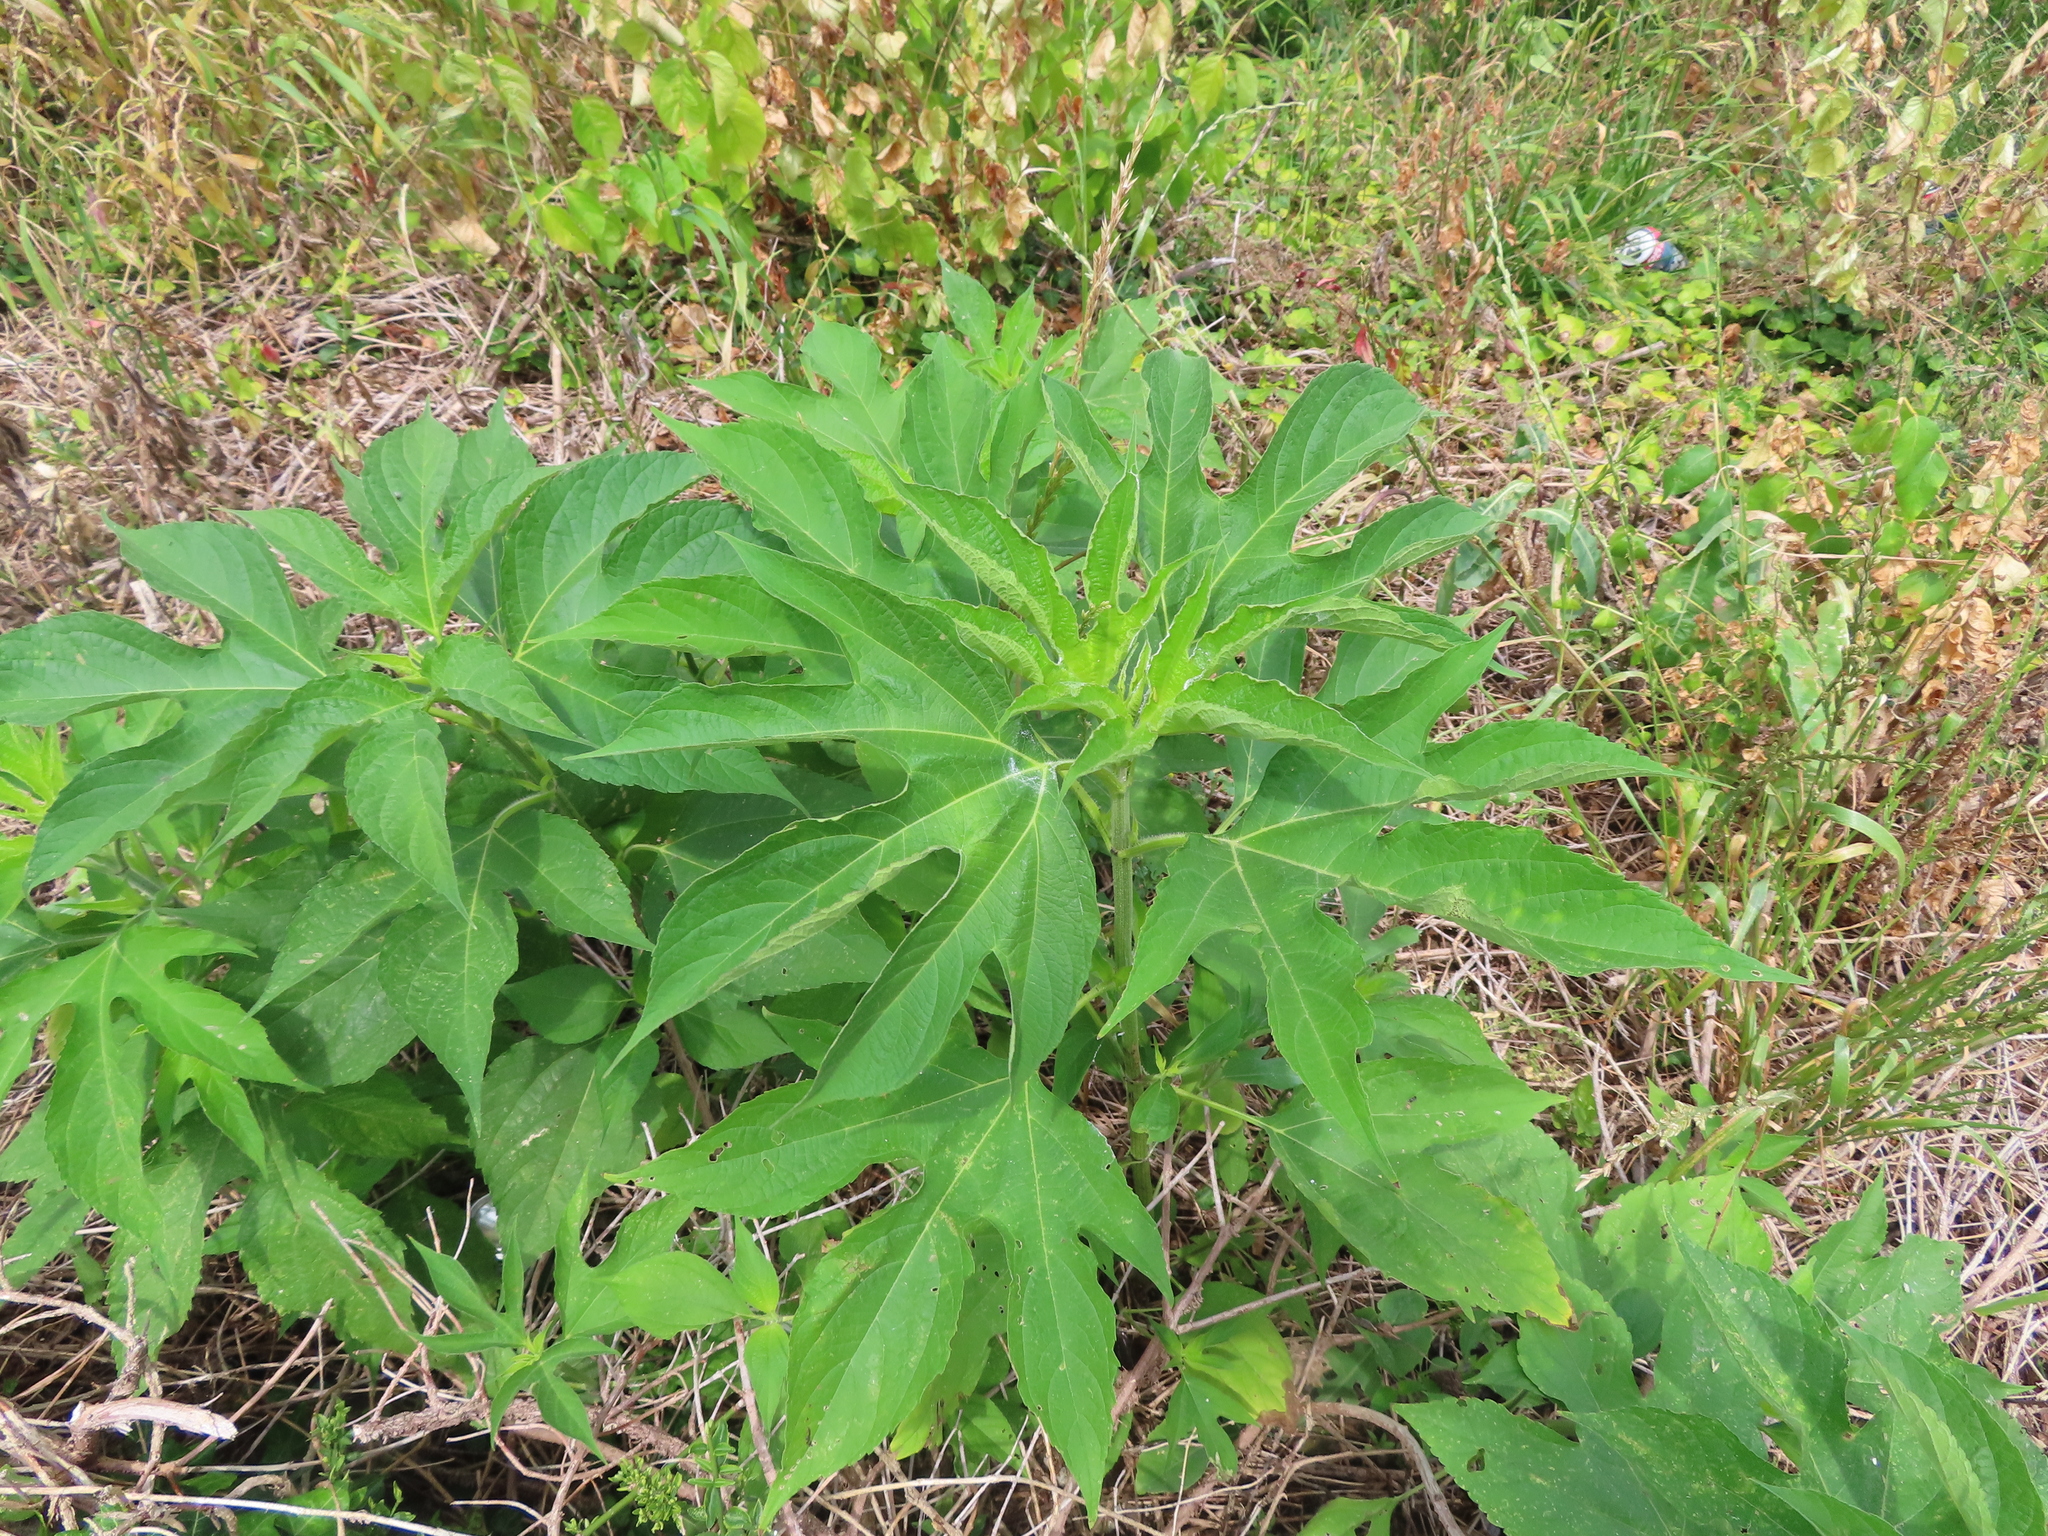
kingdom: Plantae
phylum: Tracheophyta
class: Magnoliopsida
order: Asterales
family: Asteraceae
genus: Ambrosia
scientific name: Ambrosia trifida
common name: Giant ragweed
